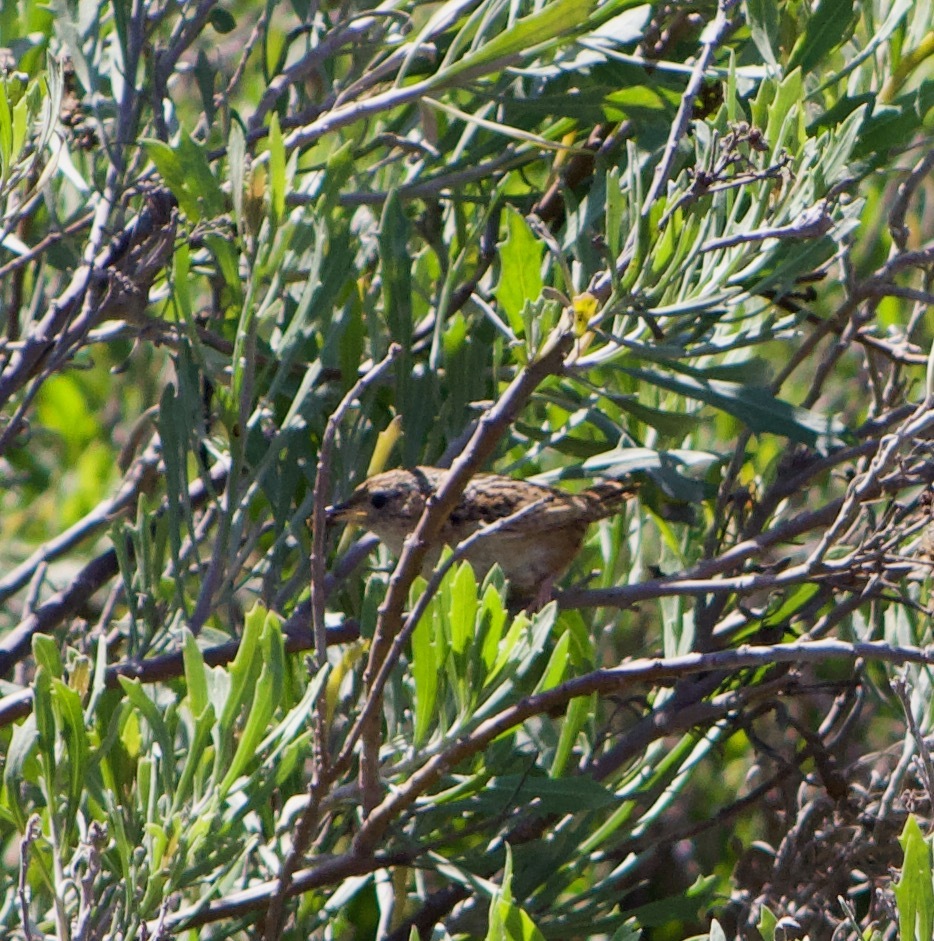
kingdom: Animalia
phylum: Chordata
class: Aves
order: Passeriformes
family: Troglodytidae
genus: Cistothorus
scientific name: Cistothorus platensis
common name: Sedge wren
